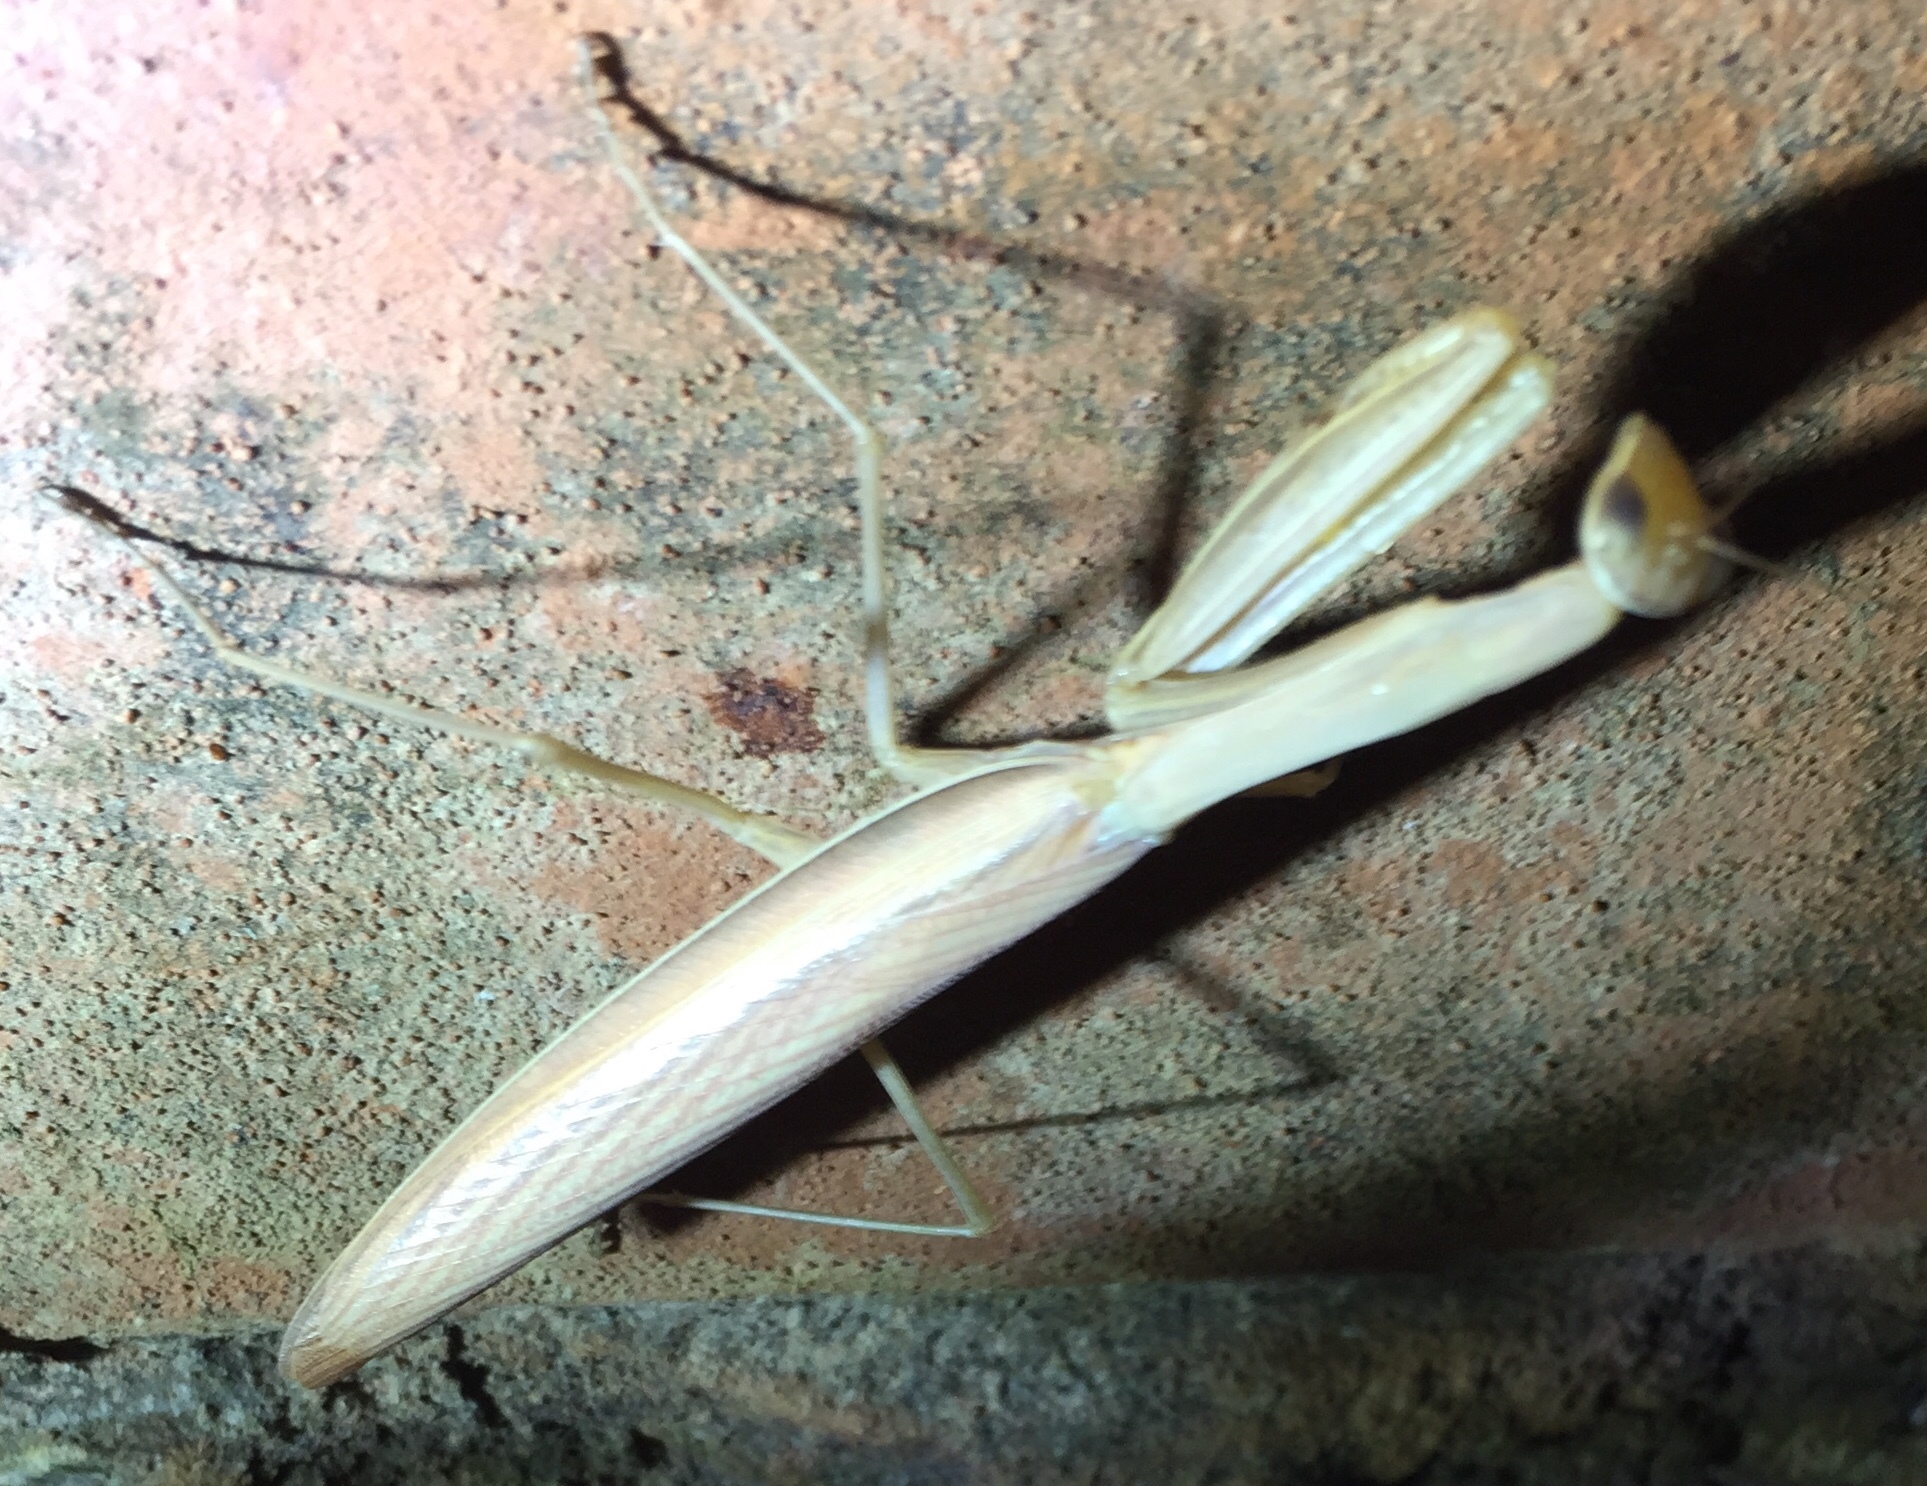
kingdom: Animalia
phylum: Arthropoda
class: Insecta
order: Mantodea
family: Mantidae
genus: Mantis
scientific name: Mantis religiosa
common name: Praying mantis
